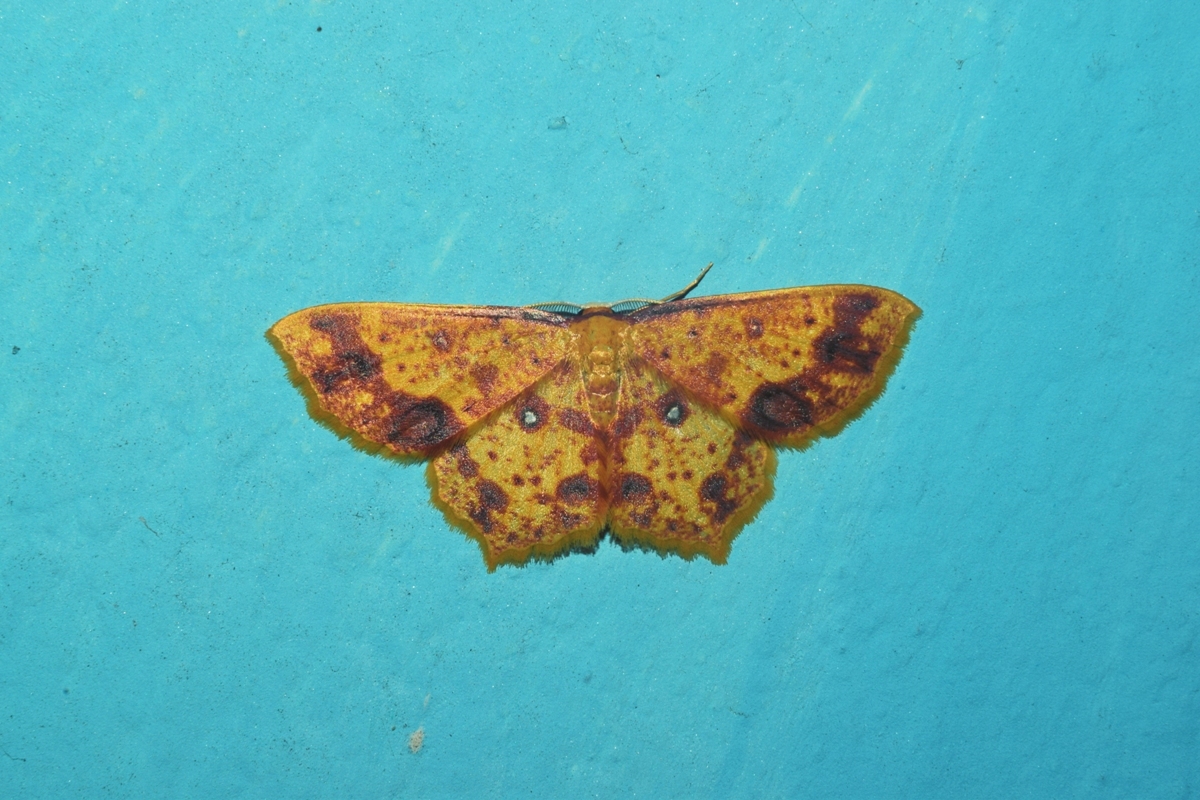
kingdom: Animalia
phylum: Arthropoda
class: Insecta
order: Lepidoptera
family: Geometridae
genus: Synegiodes
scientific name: Synegiodes histrionaria
